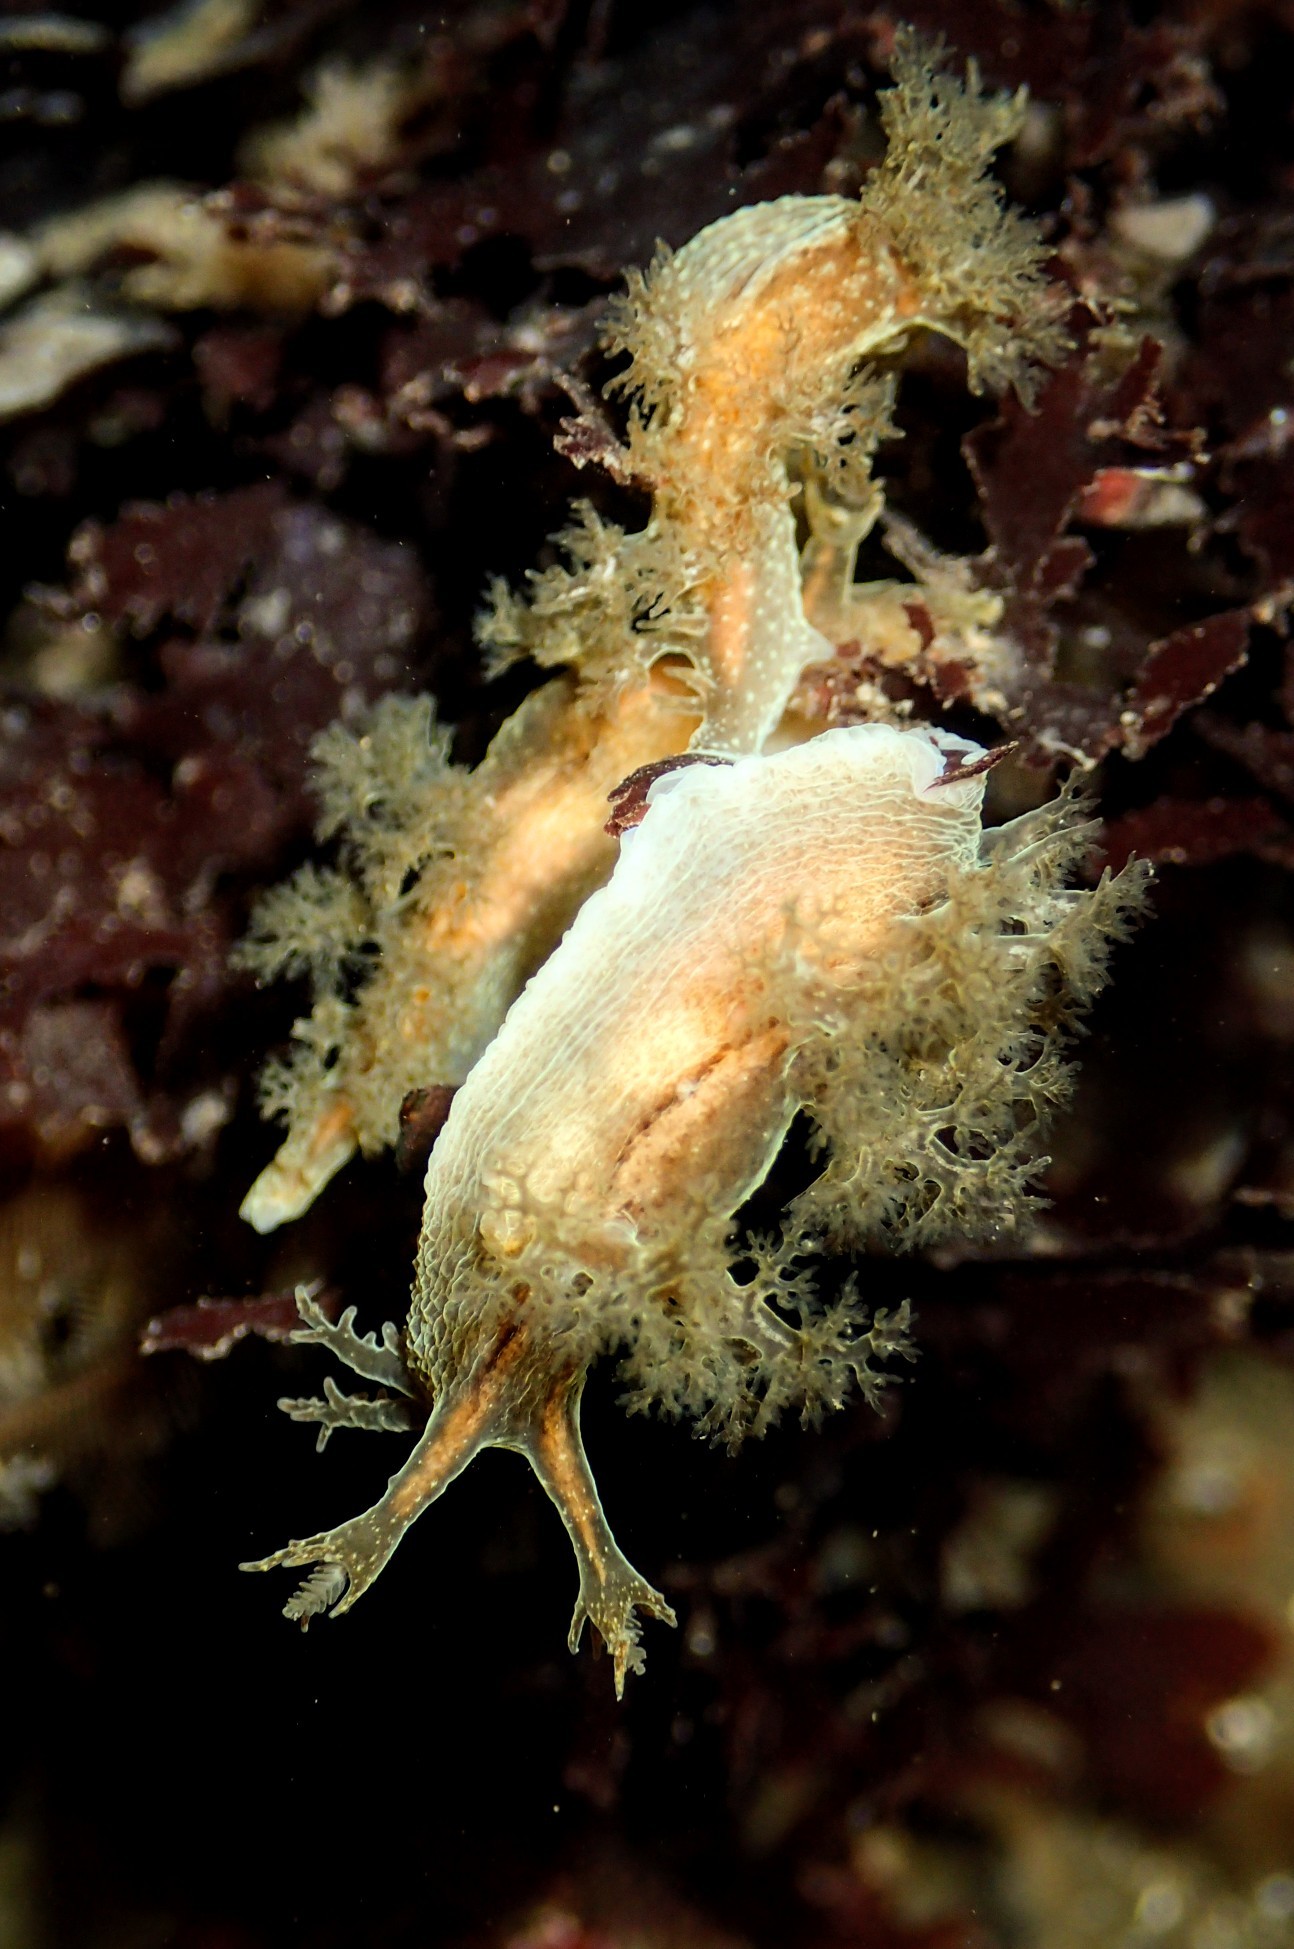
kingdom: Animalia
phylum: Mollusca
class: Gastropoda
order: Nudibranchia
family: Dendronotidae
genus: Dendronotus
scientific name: Dendronotus subramosus
